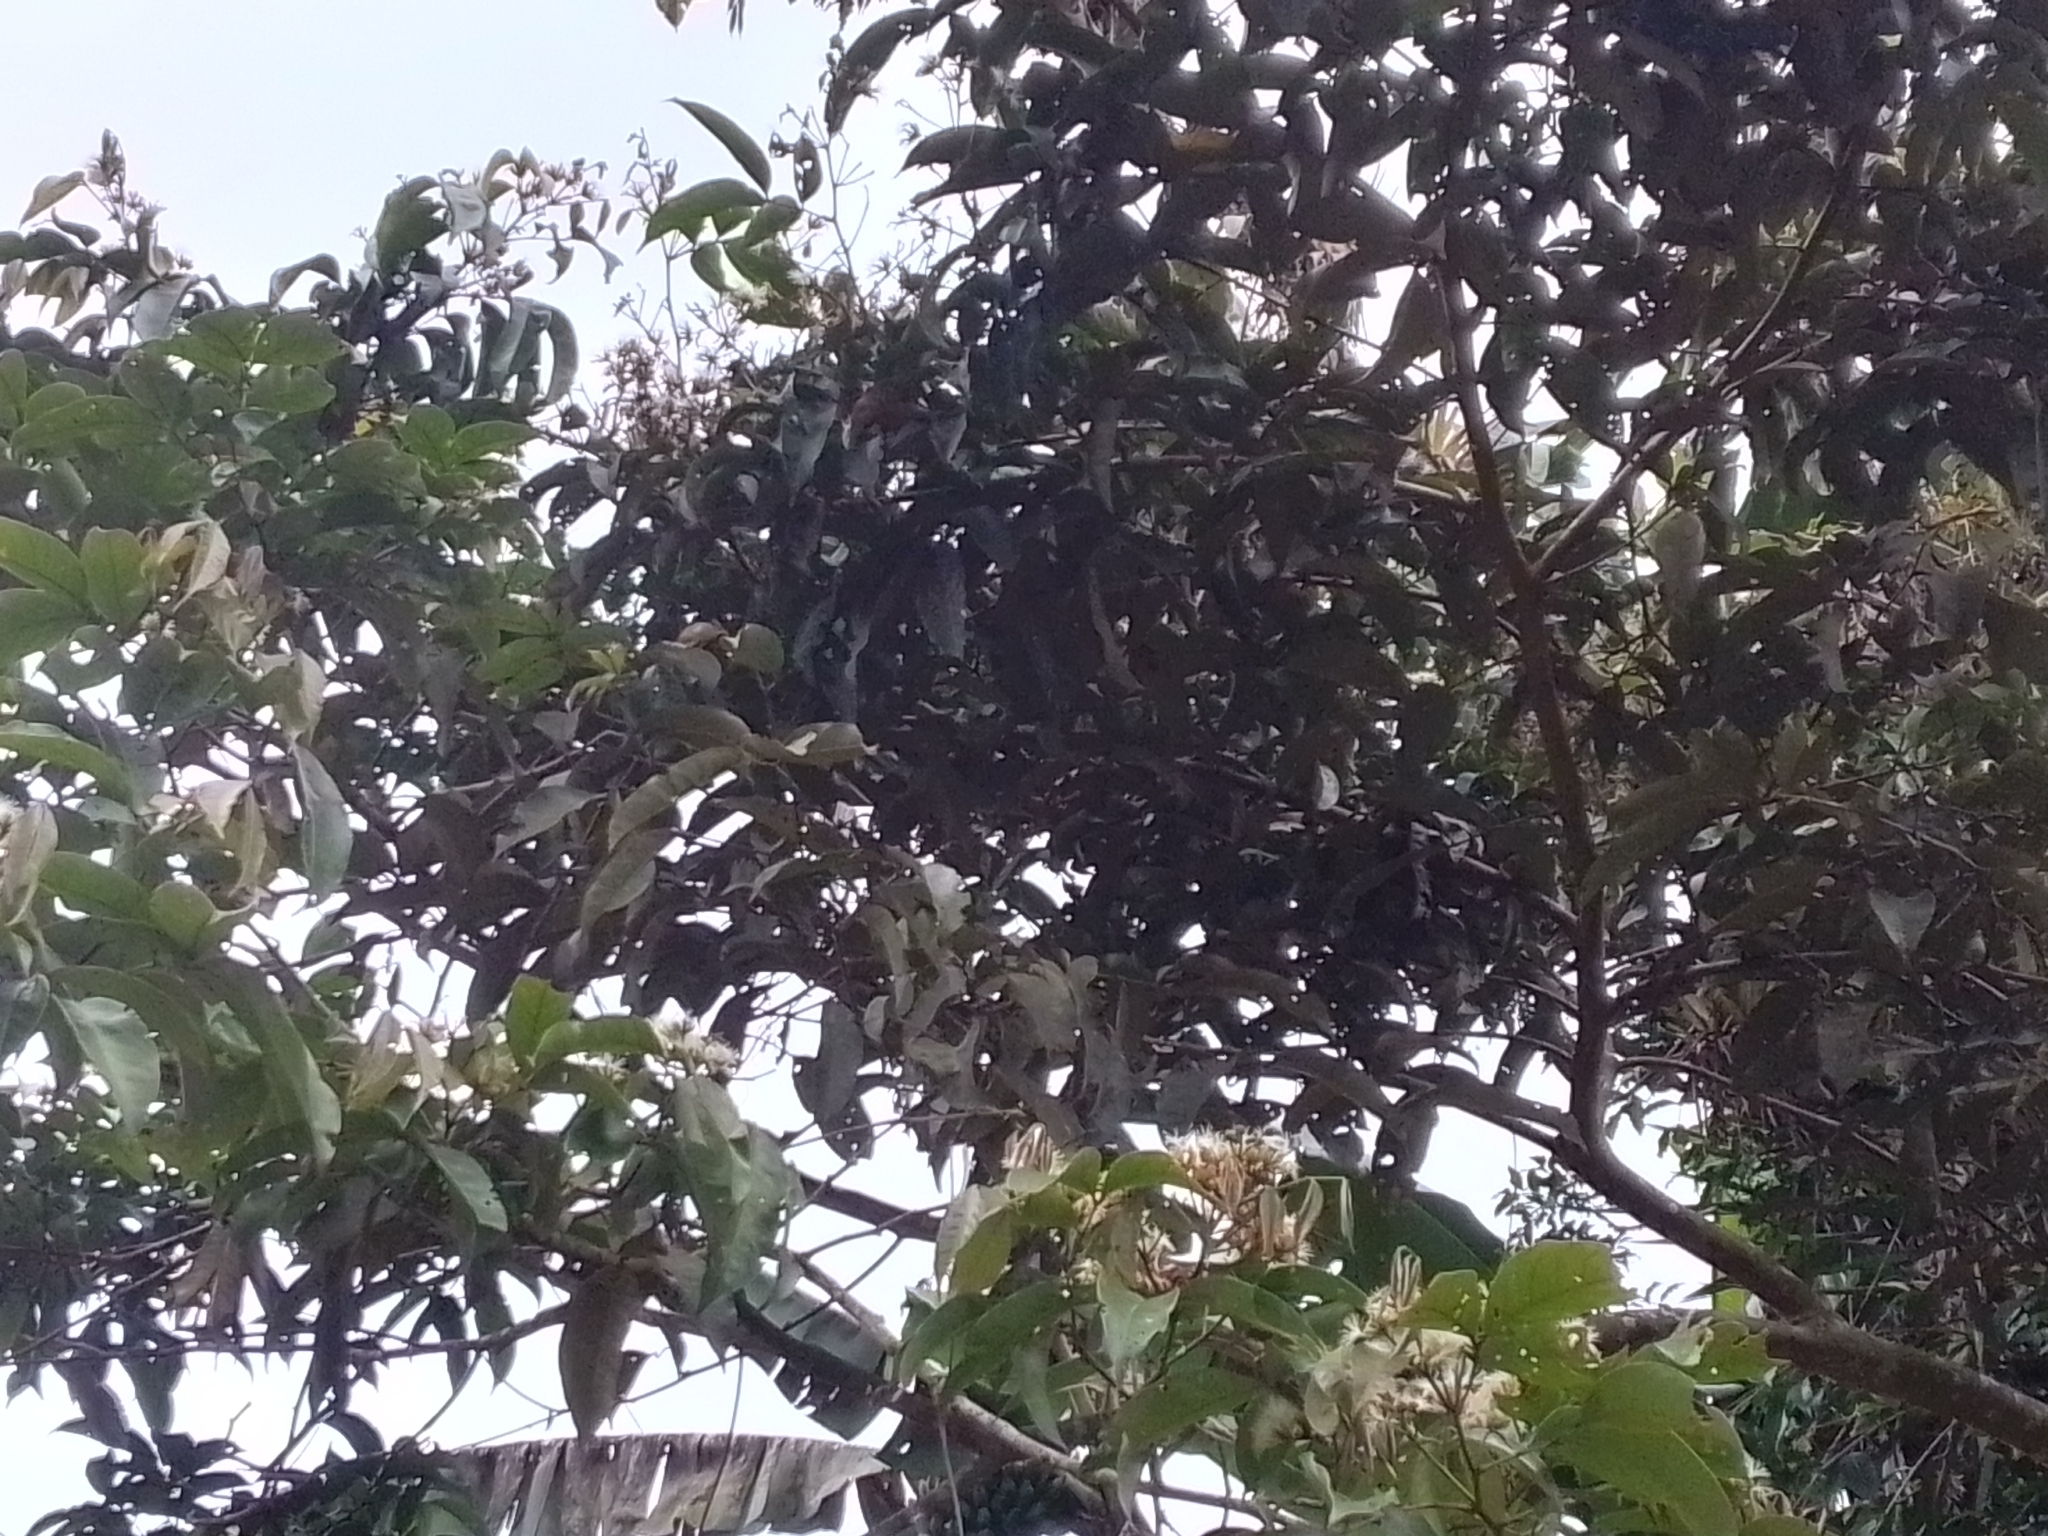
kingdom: Plantae
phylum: Tracheophyta
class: Magnoliopsida
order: Fabales
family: Fabaceae
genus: Inga
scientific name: Inga punctata
